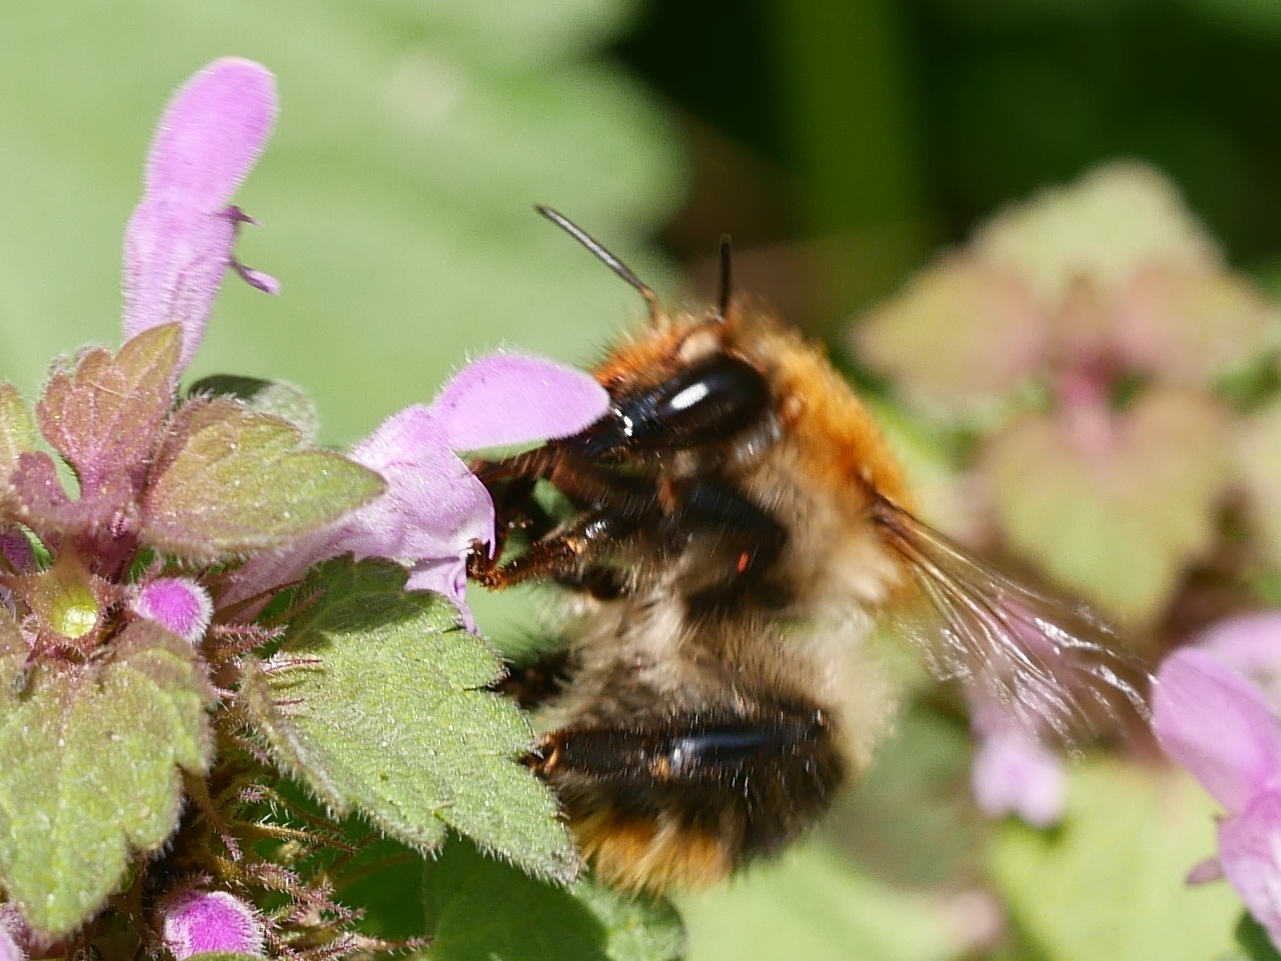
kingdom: Animalia
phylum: Arthropoda
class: Insecta
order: Hymenoptera
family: Apidae
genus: Bombus
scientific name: Bombus pascuorum
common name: Common carder bee
